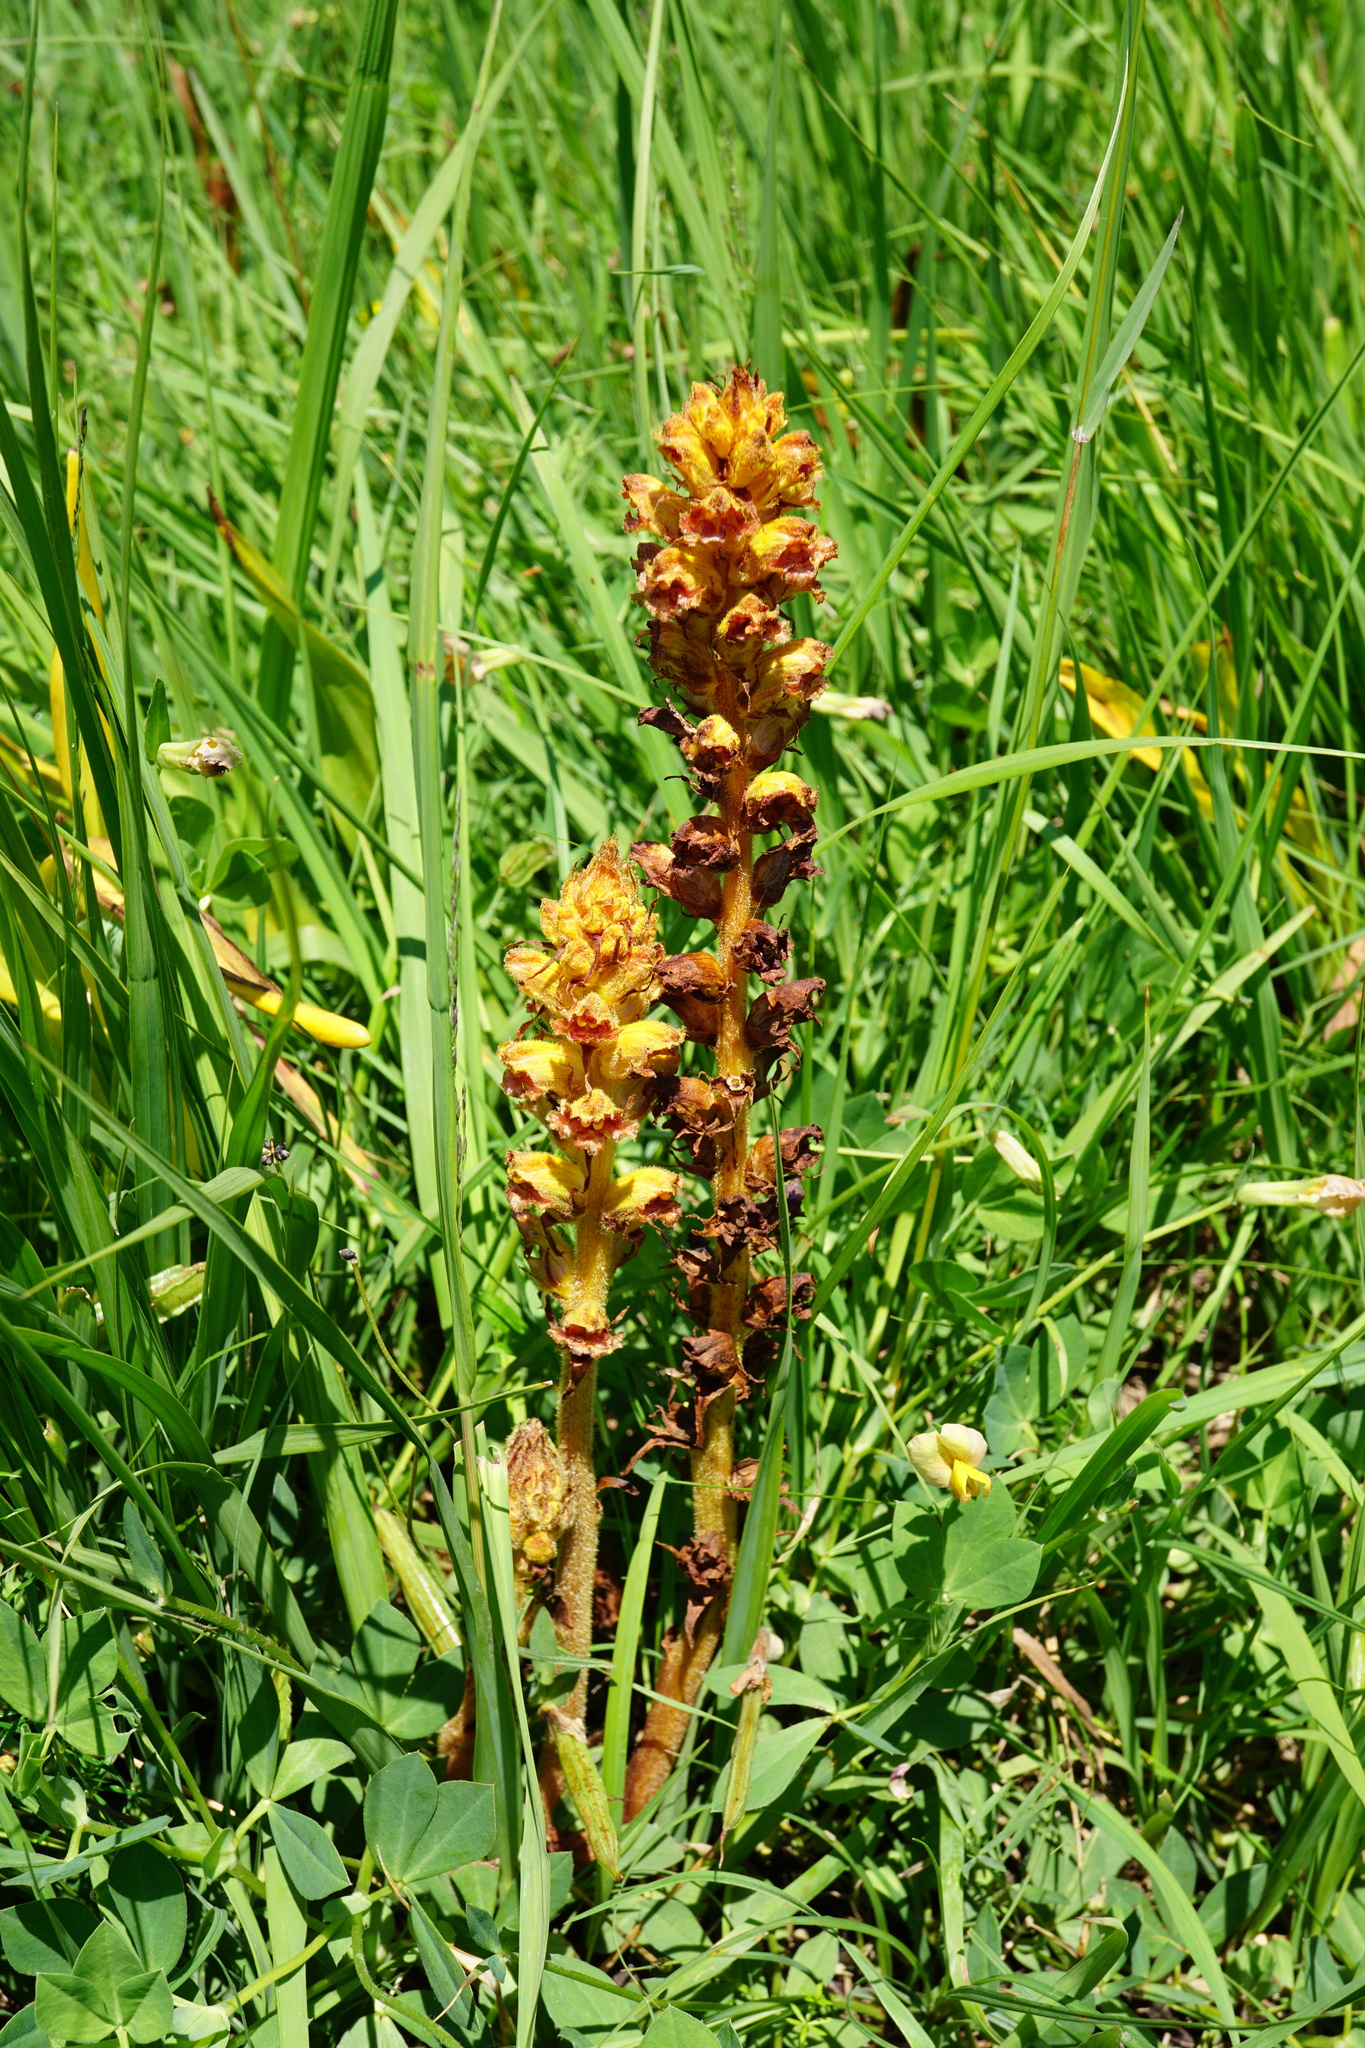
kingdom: Plantae
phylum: Tracheophyta
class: Magnoliopsida
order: Lamiales
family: Orobanchaceae
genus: Orobanche
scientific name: Orobanche gracilis
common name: Slender broomrape
